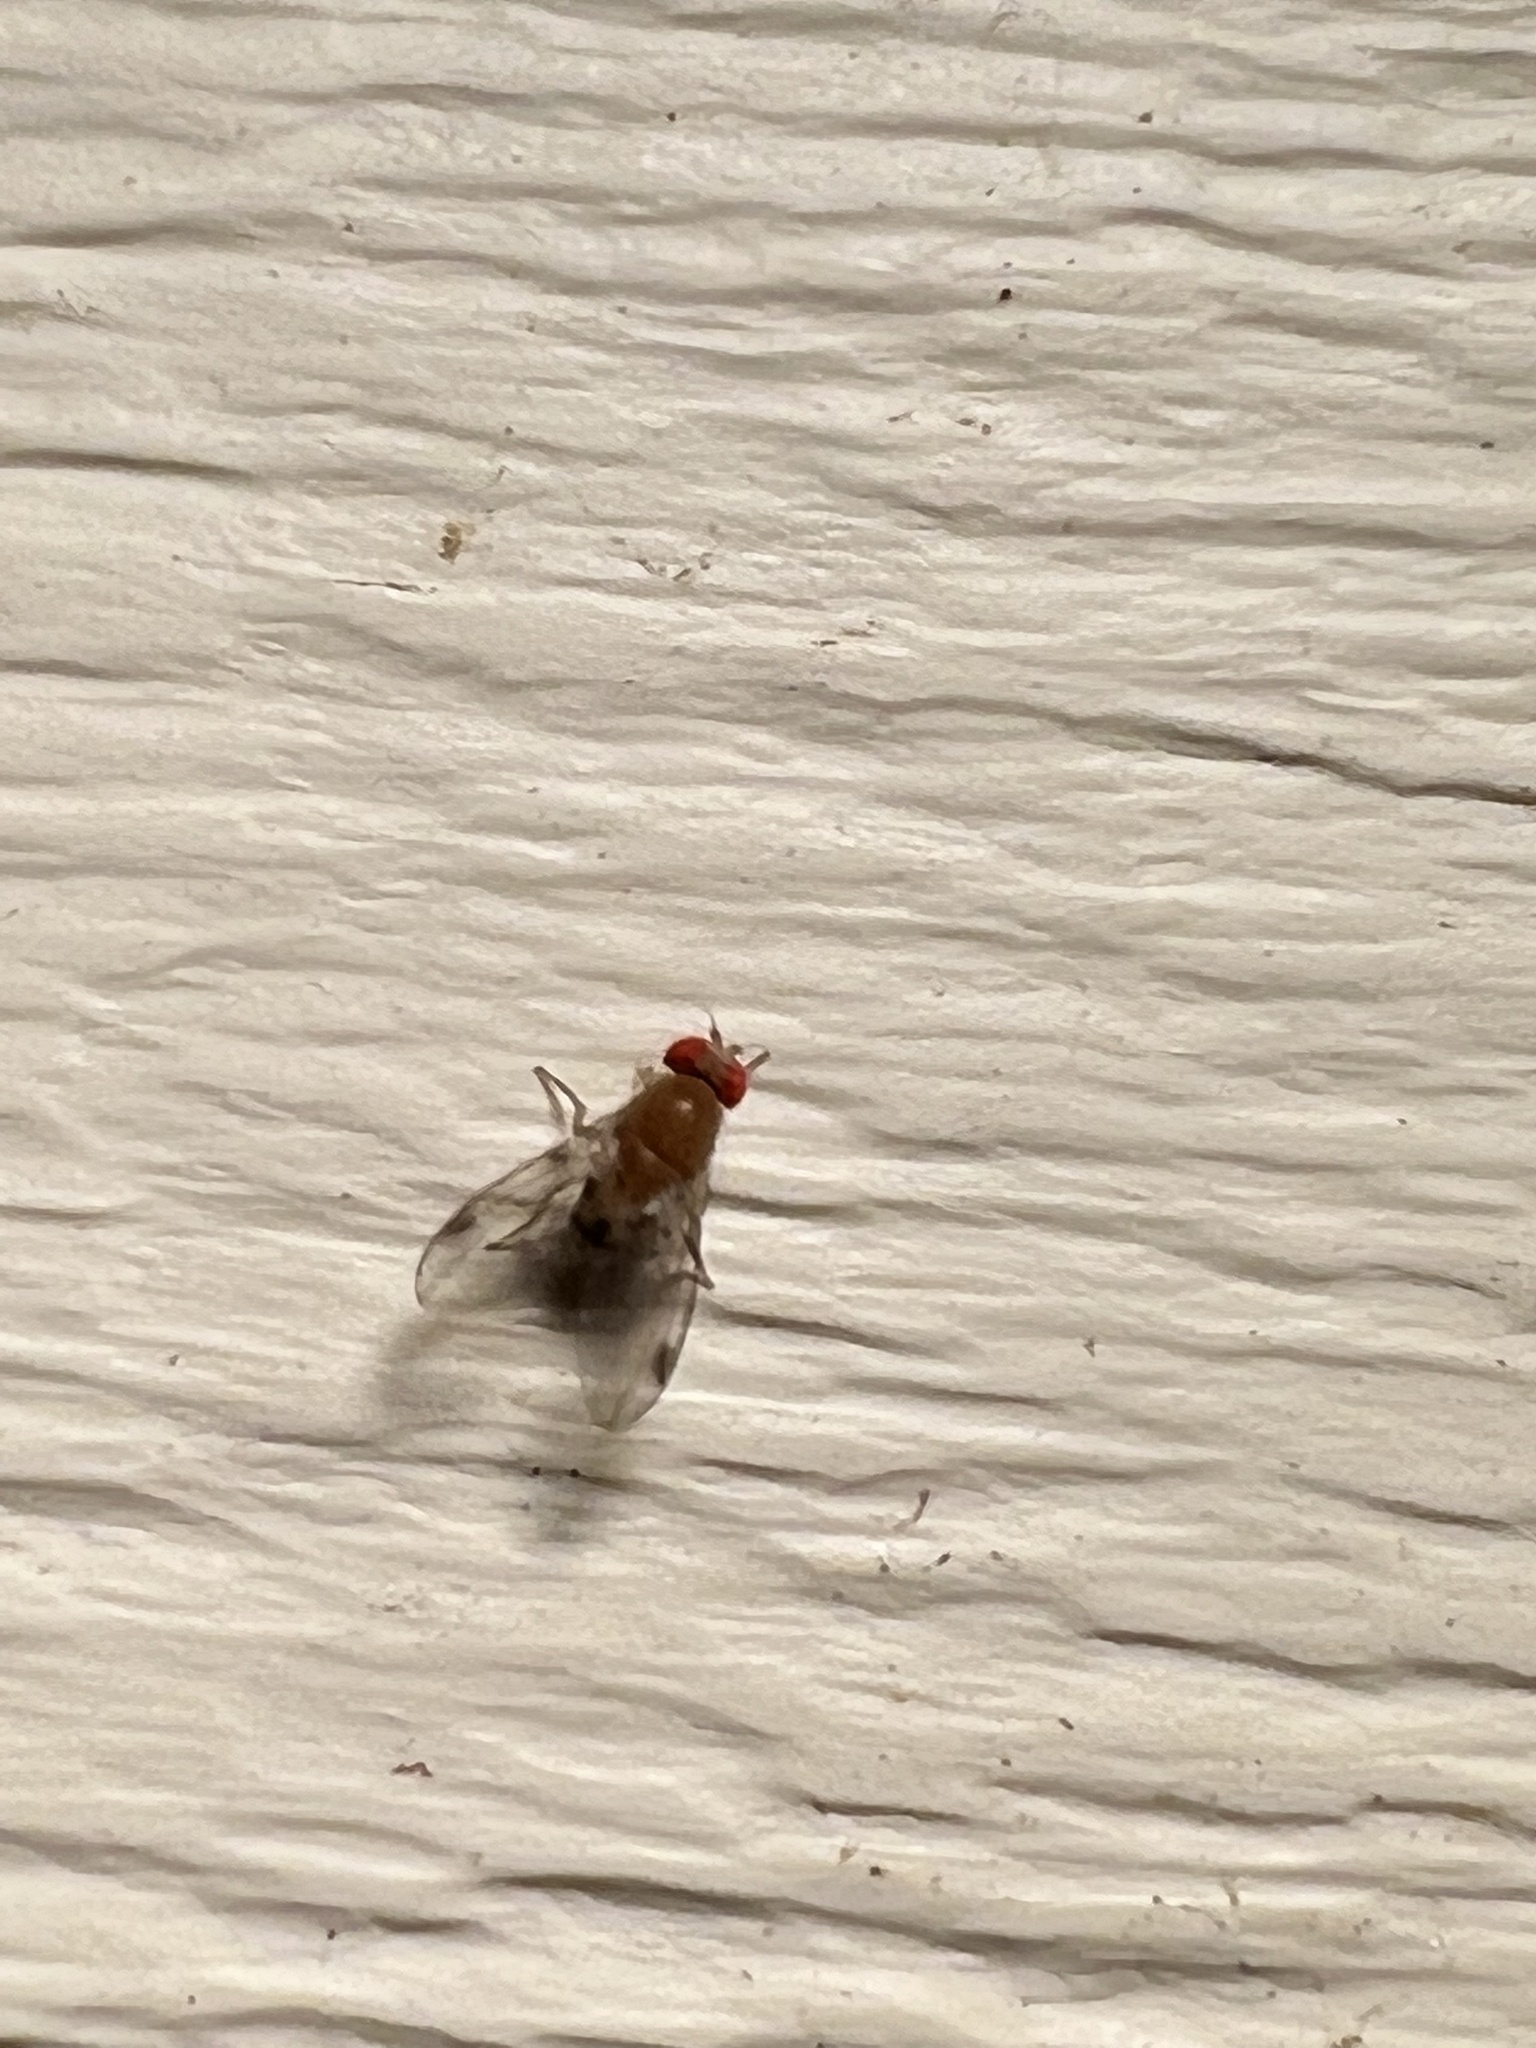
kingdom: Animalia
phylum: Arthropoda
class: Insecta
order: Diptera
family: Drosophilidae
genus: Leucophenga
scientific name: Leucophenga varia
